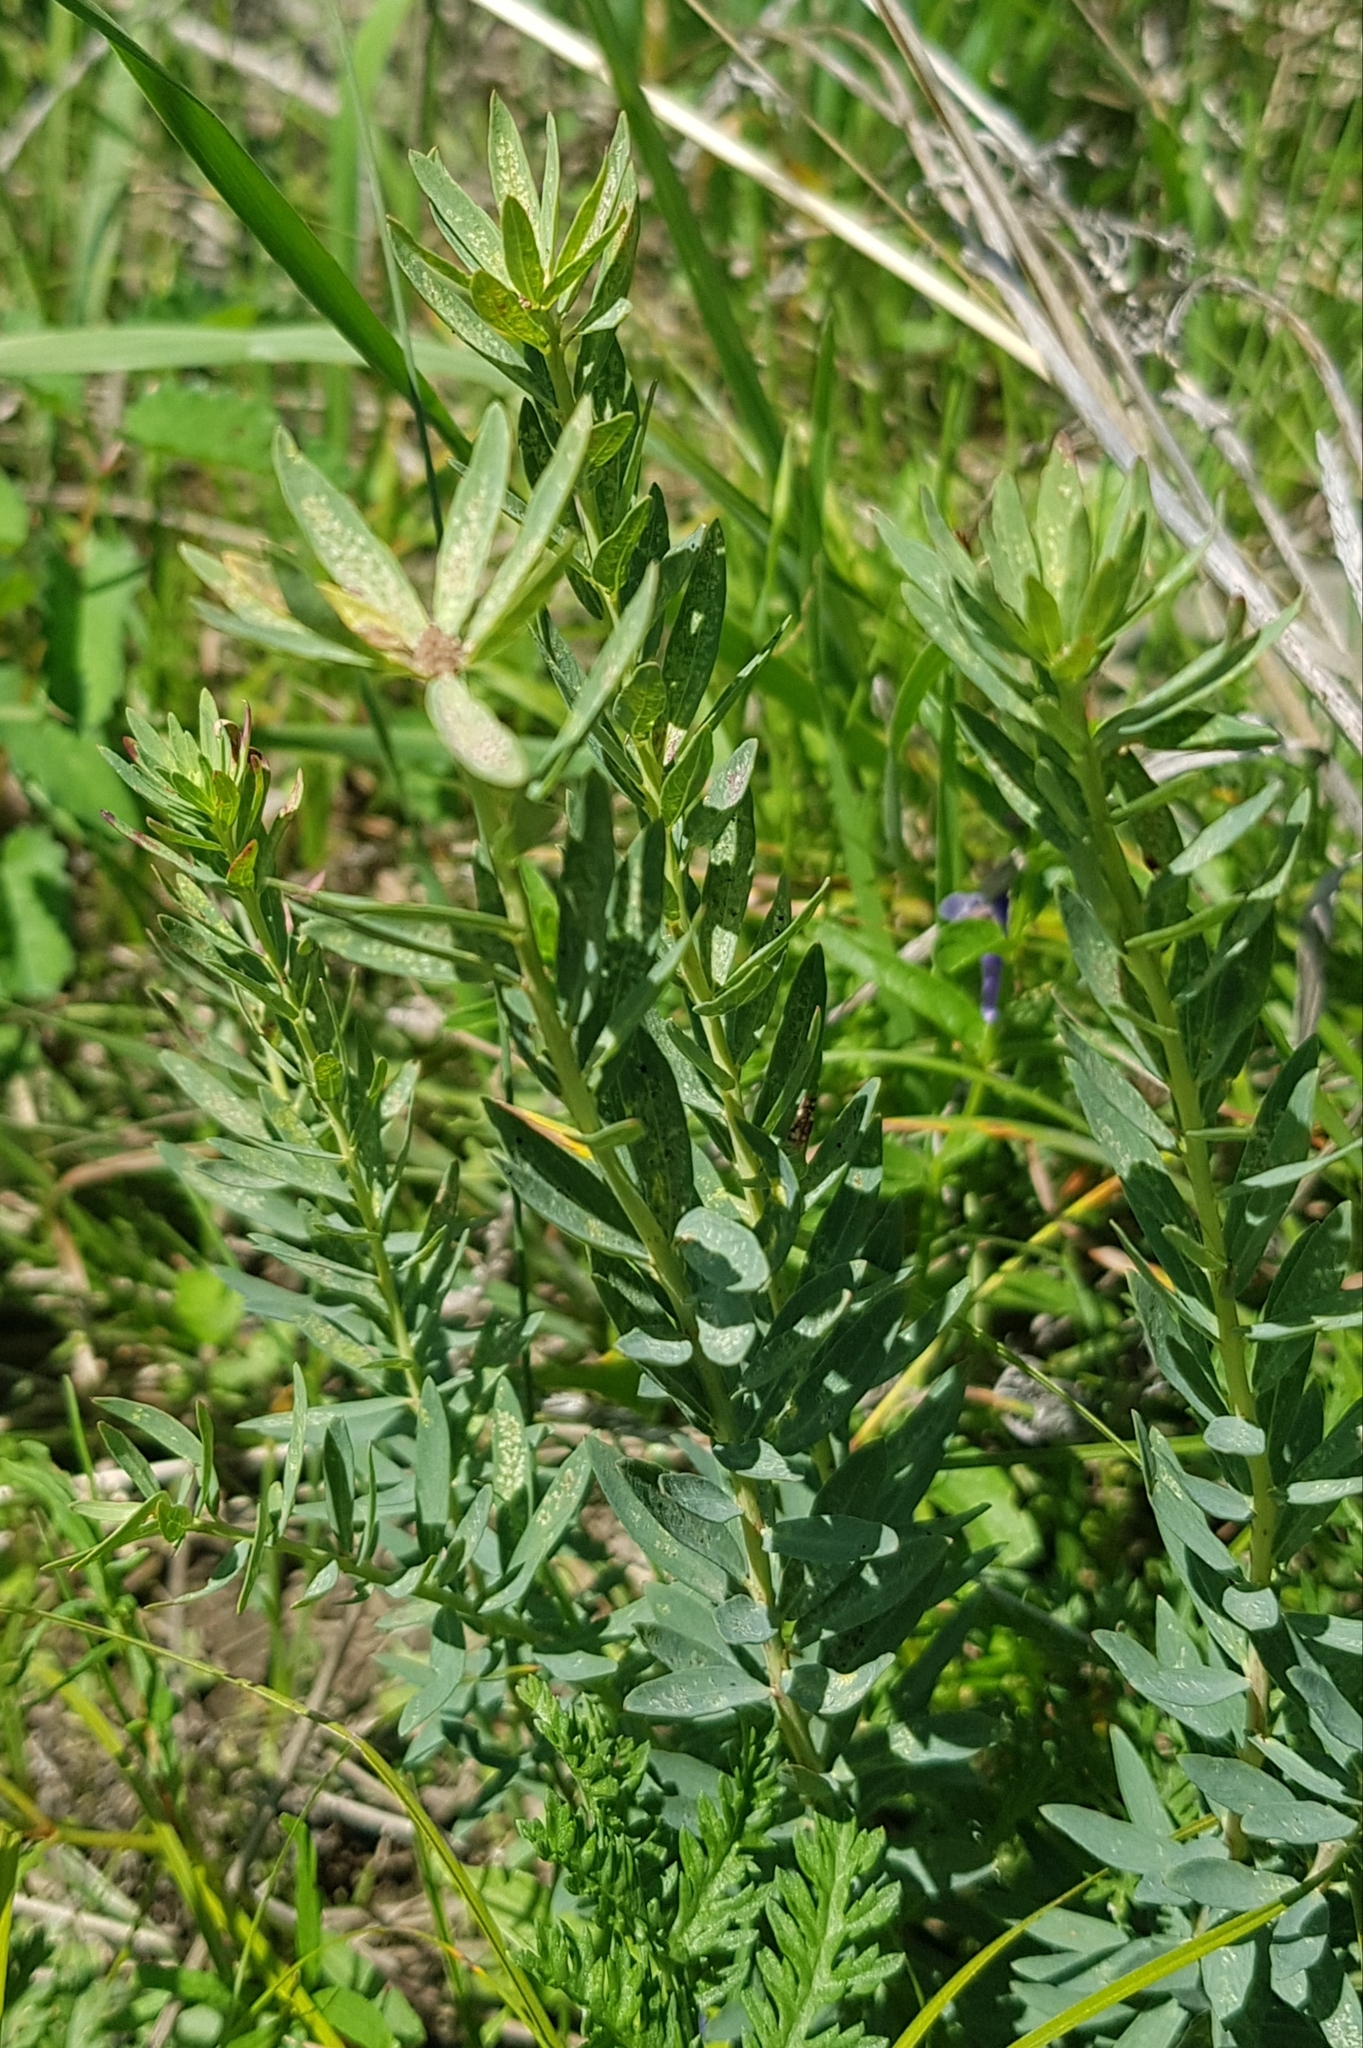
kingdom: Plantae
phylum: Tracheophyta
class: Magnoliopsida
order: Malvales
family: Thymelaeaceae
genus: Stellera
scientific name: Stellera chamaejasme
